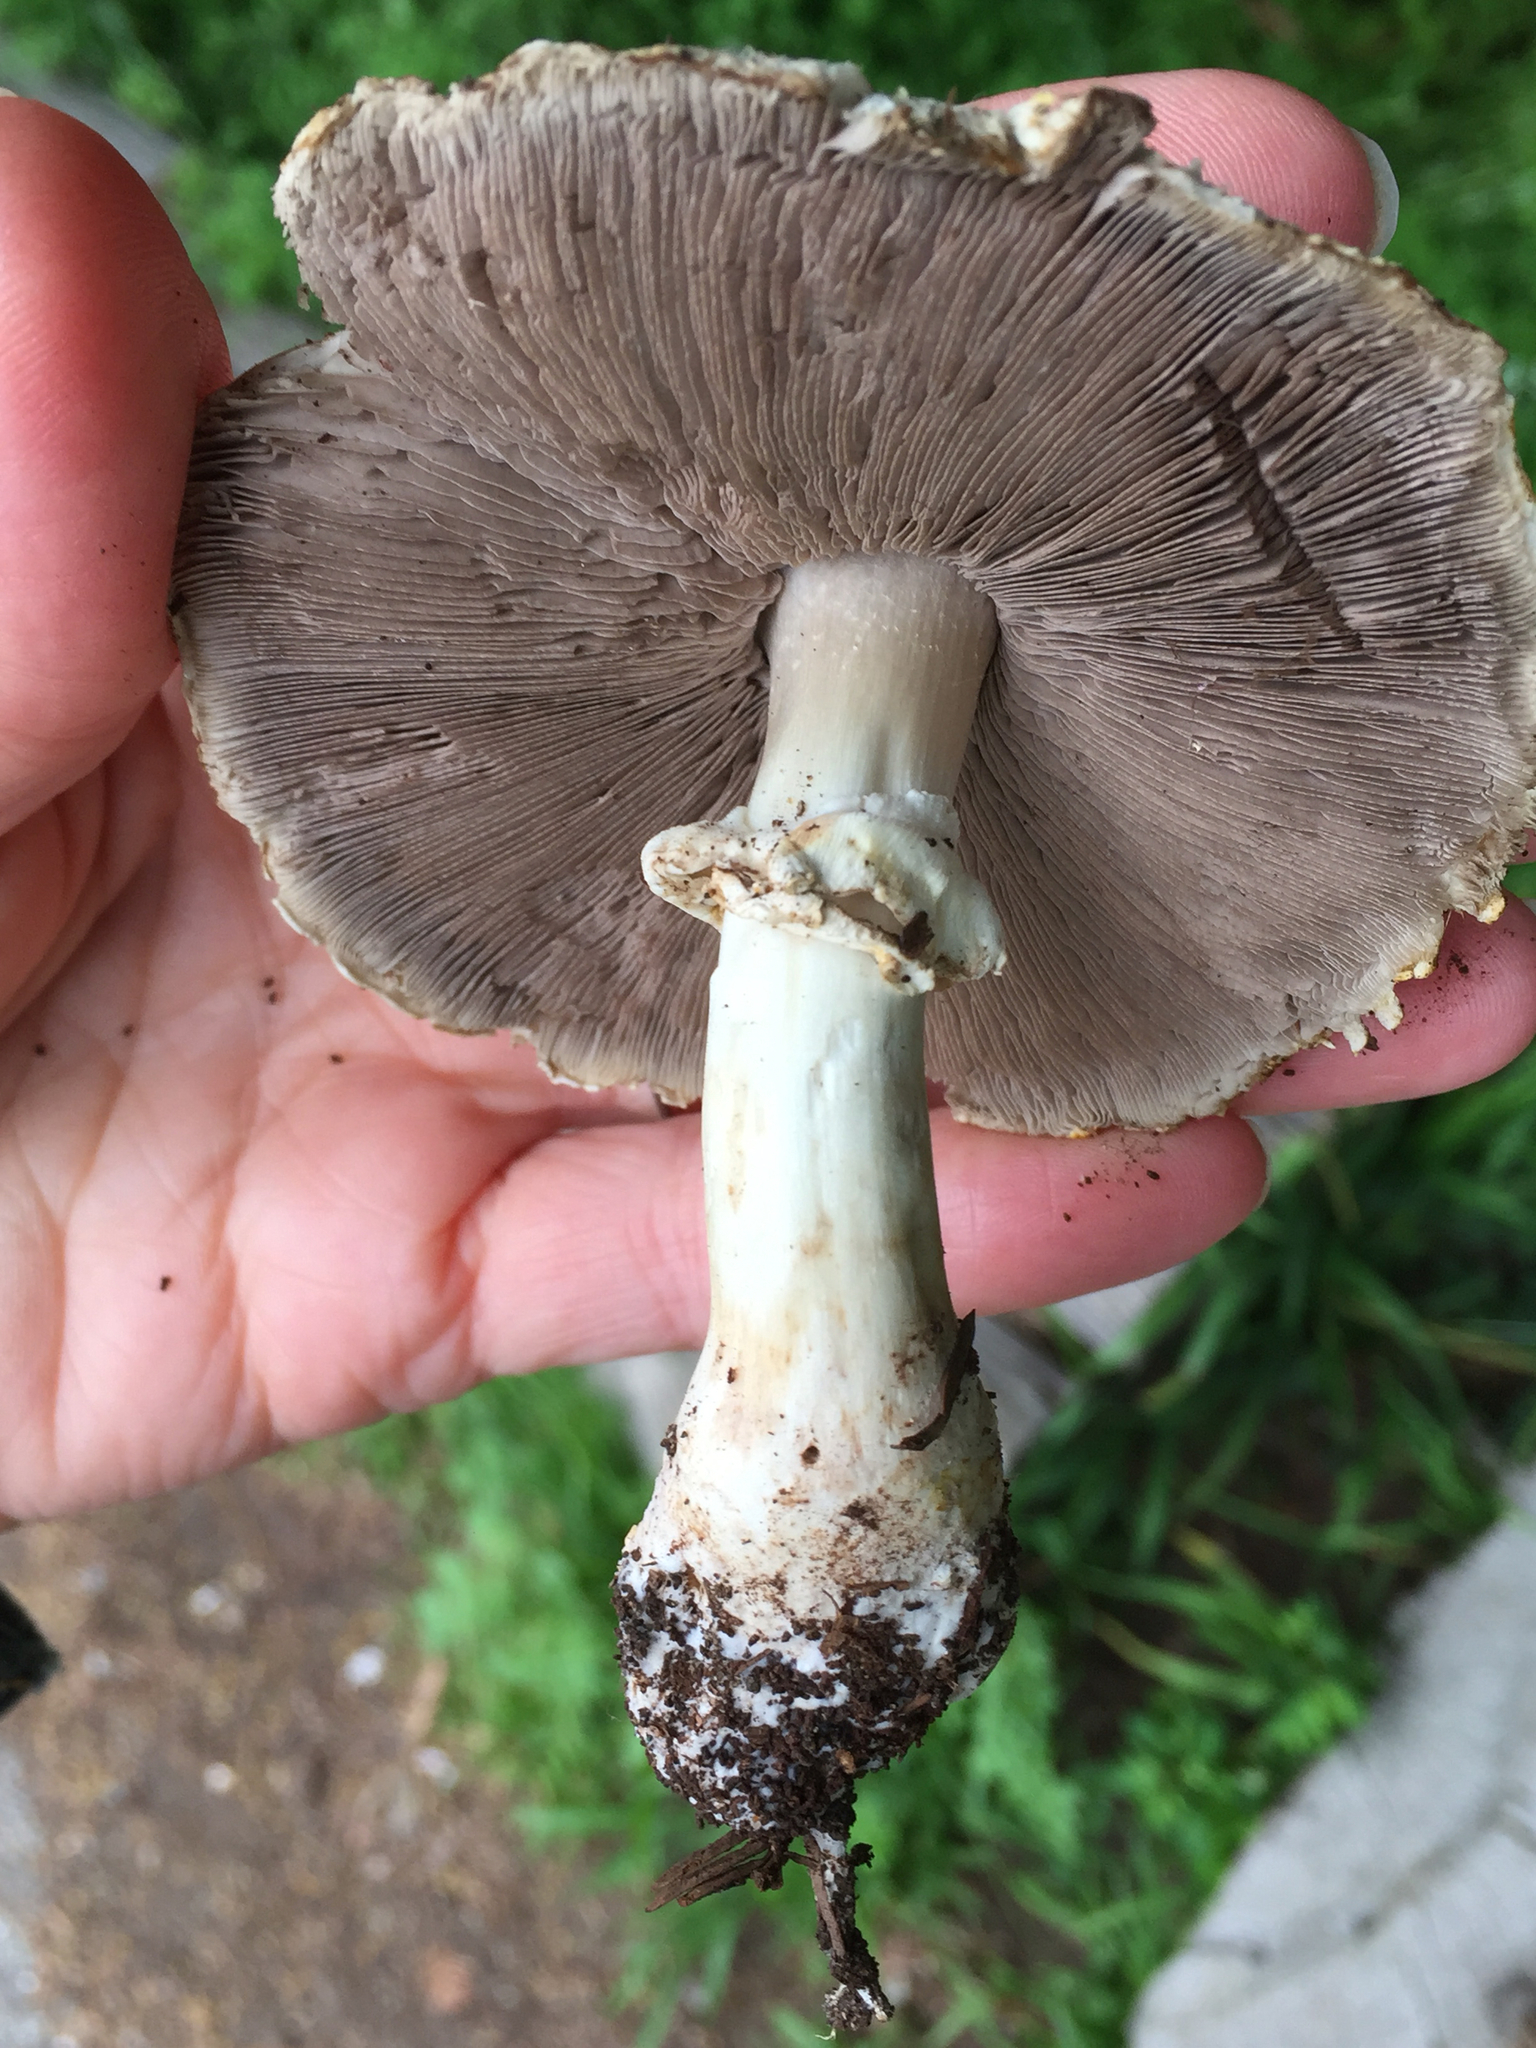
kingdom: Fungi
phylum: Basidiomycota
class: Agaricomycetes
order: Agaricales
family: Agaricaceae
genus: Agaricus
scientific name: Agaricus xanthodermus
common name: Yellow stainer
